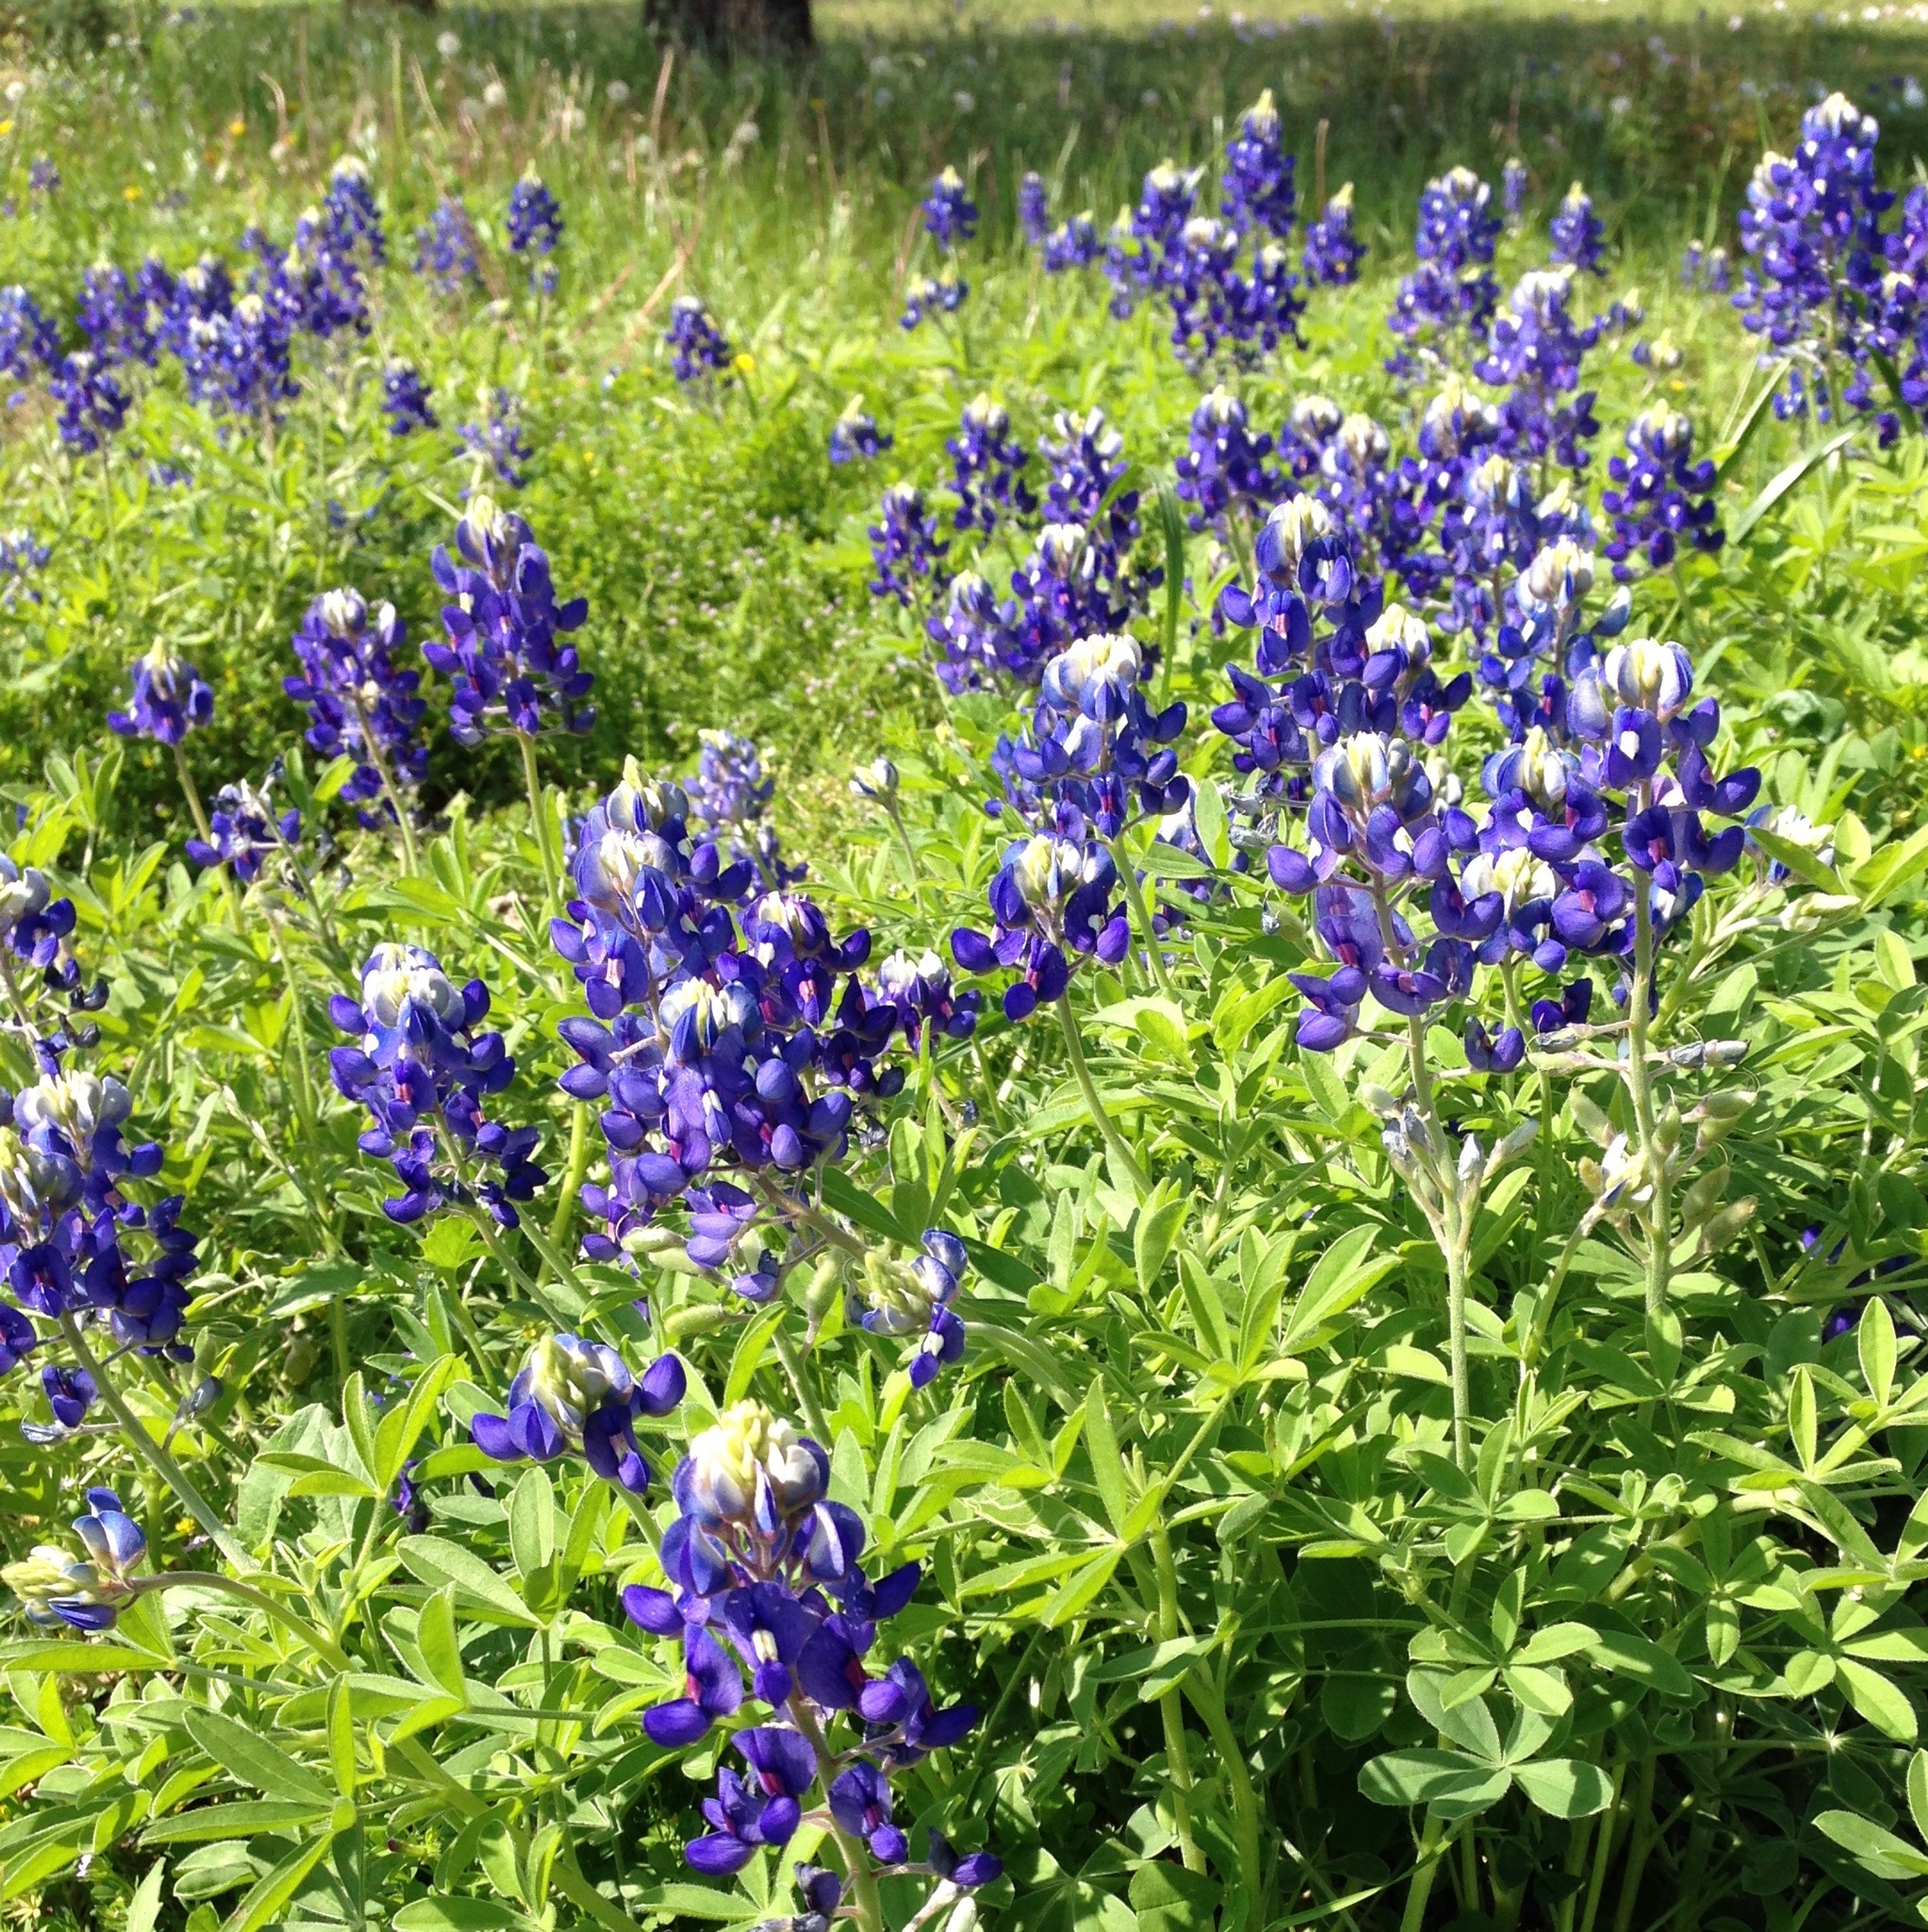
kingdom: Plantae
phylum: Tracheophyta
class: Magnoliopsida
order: Fabales
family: Fabaceae
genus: Lupinus
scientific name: Lupinus texensis
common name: Texas bluebonnet
